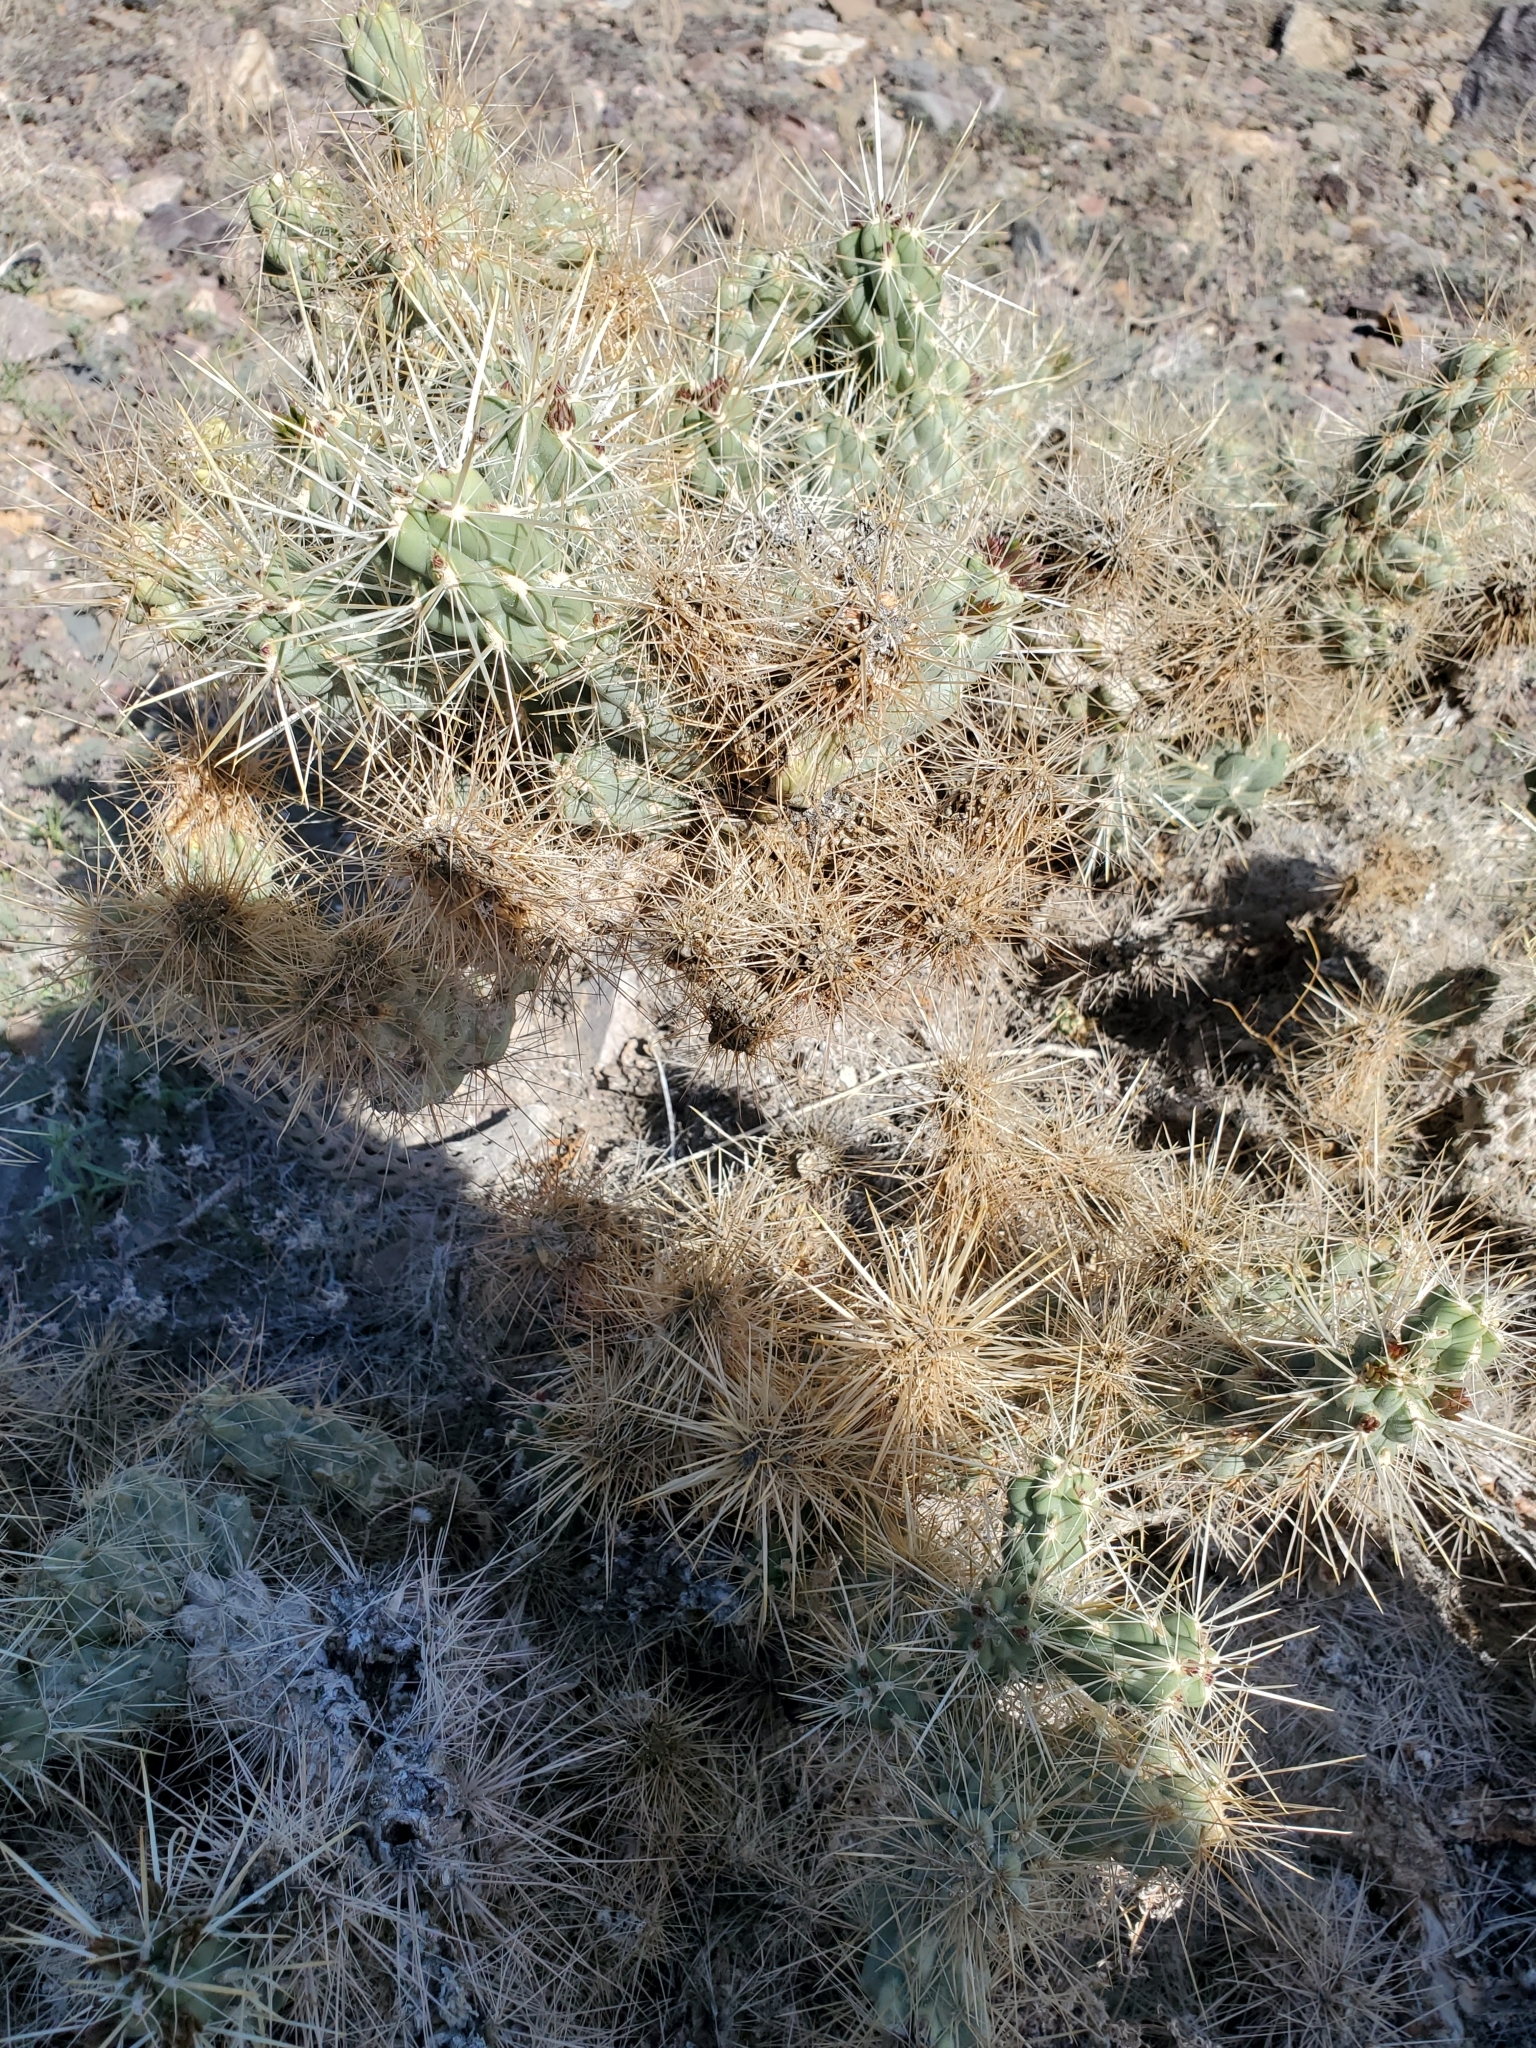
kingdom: Plantae
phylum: Tracheophyta
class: Magnoliopsida
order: Caryophyllales
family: Cactaceae
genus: Cylindropuntia
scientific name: Cylindropuntia echinocarpa
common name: Ground cholla
